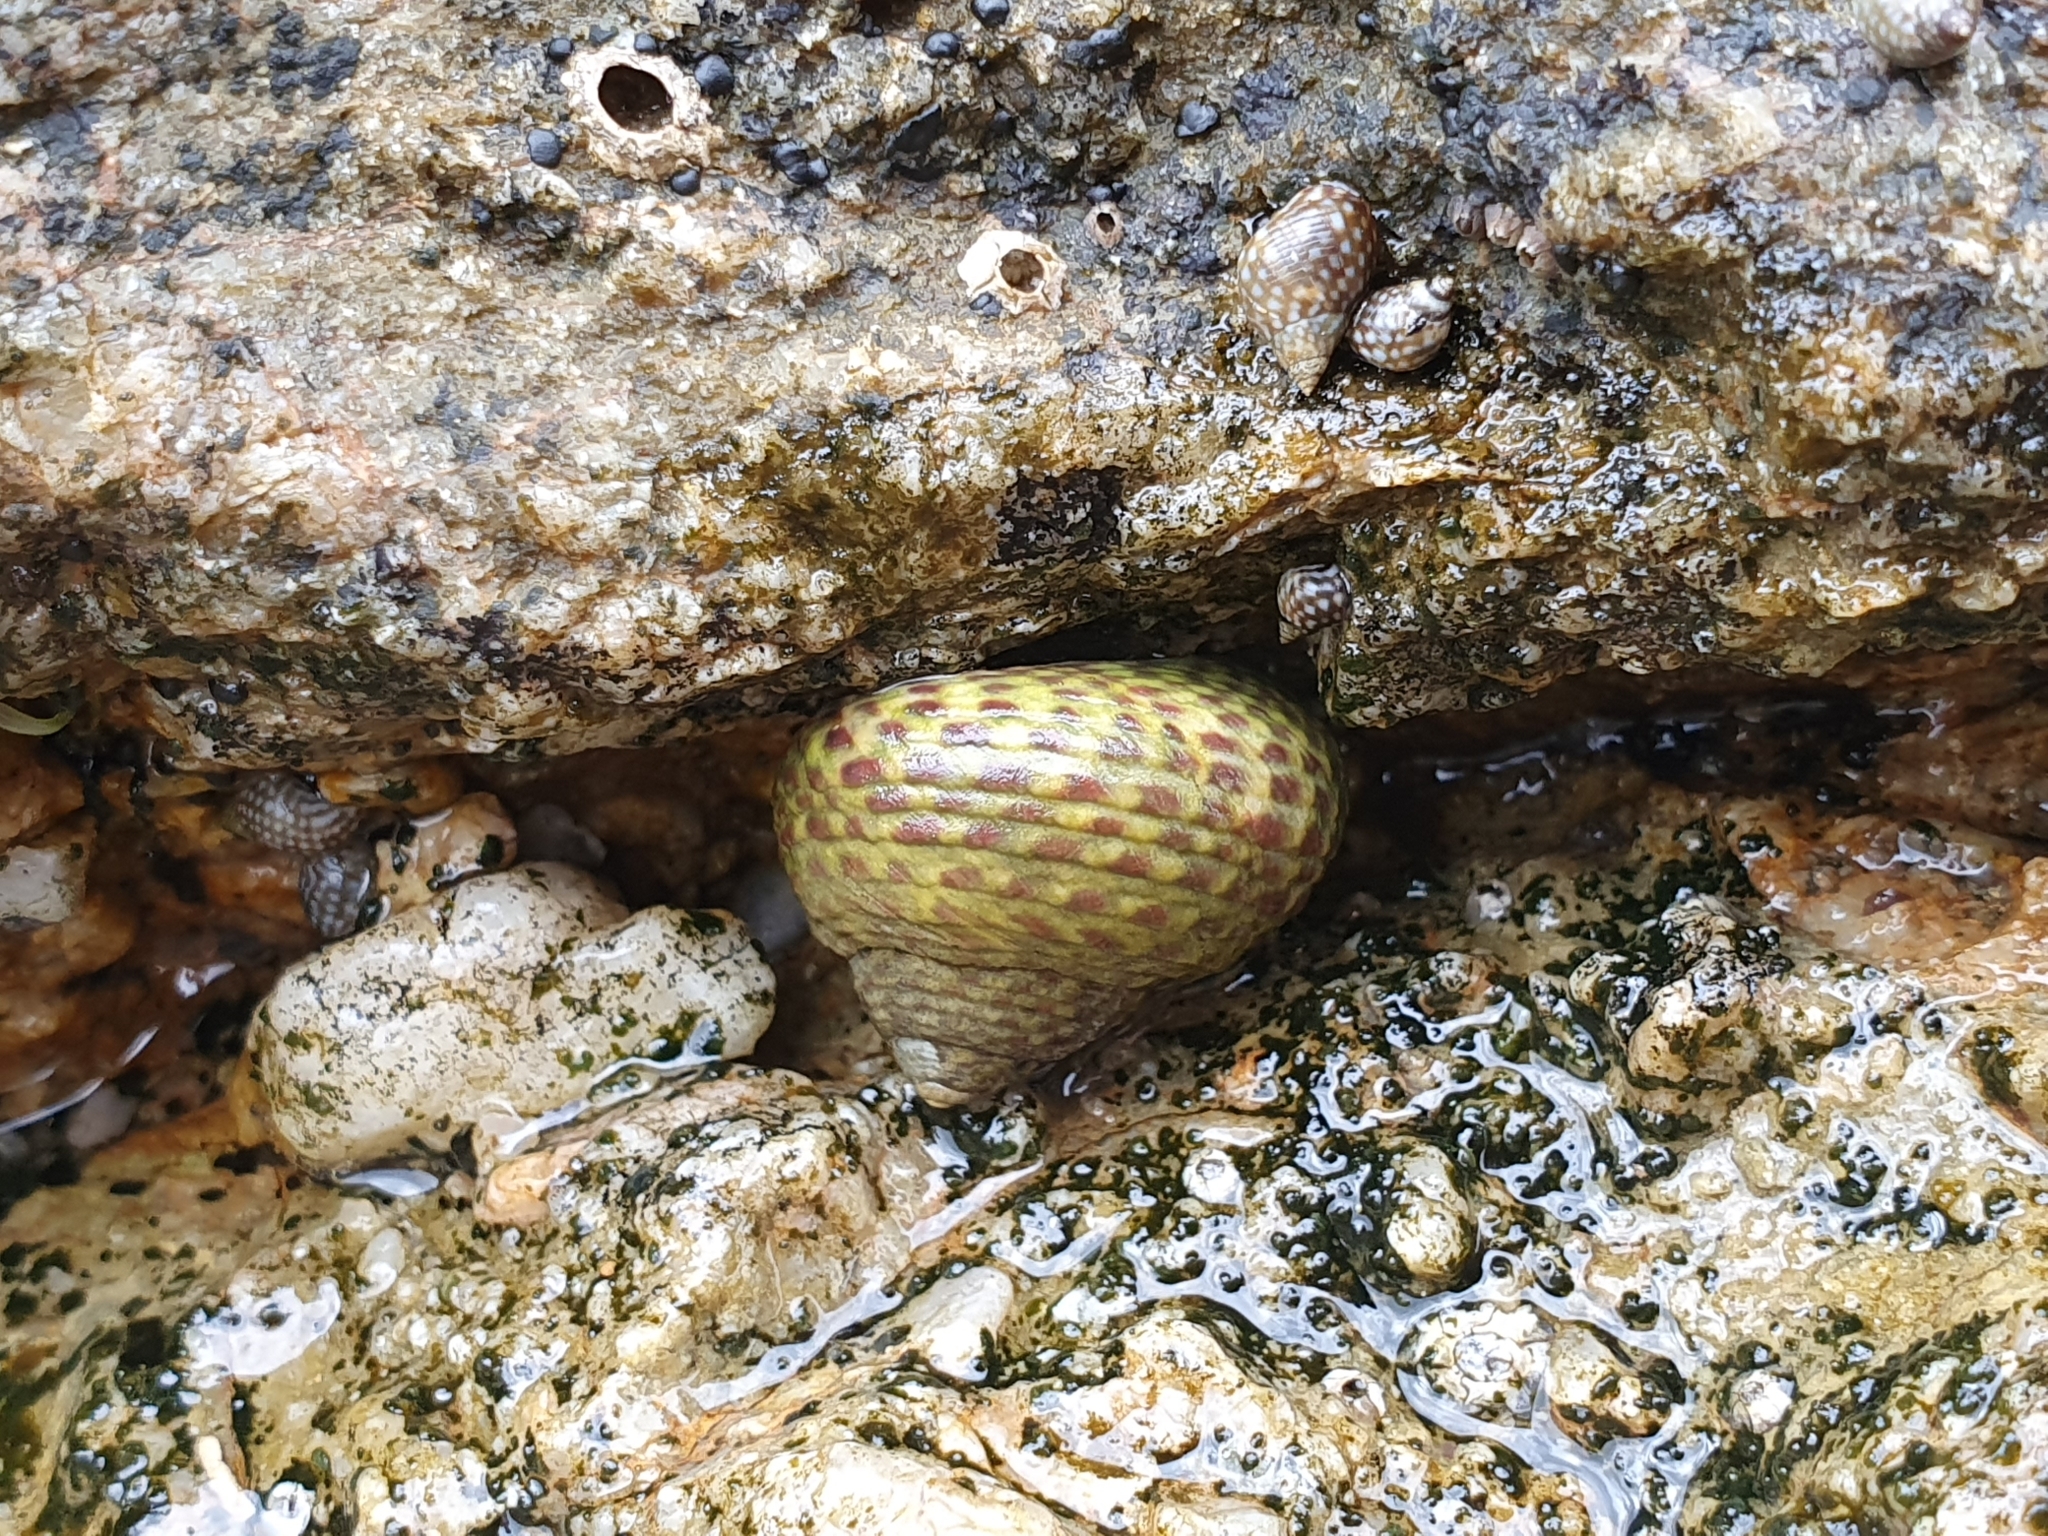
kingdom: Animalia
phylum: Mollusca
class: Gastropoda
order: Trochida
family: Trochidae
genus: Phorcus
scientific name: Phorcus turbinatus
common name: Turbinate monodont
